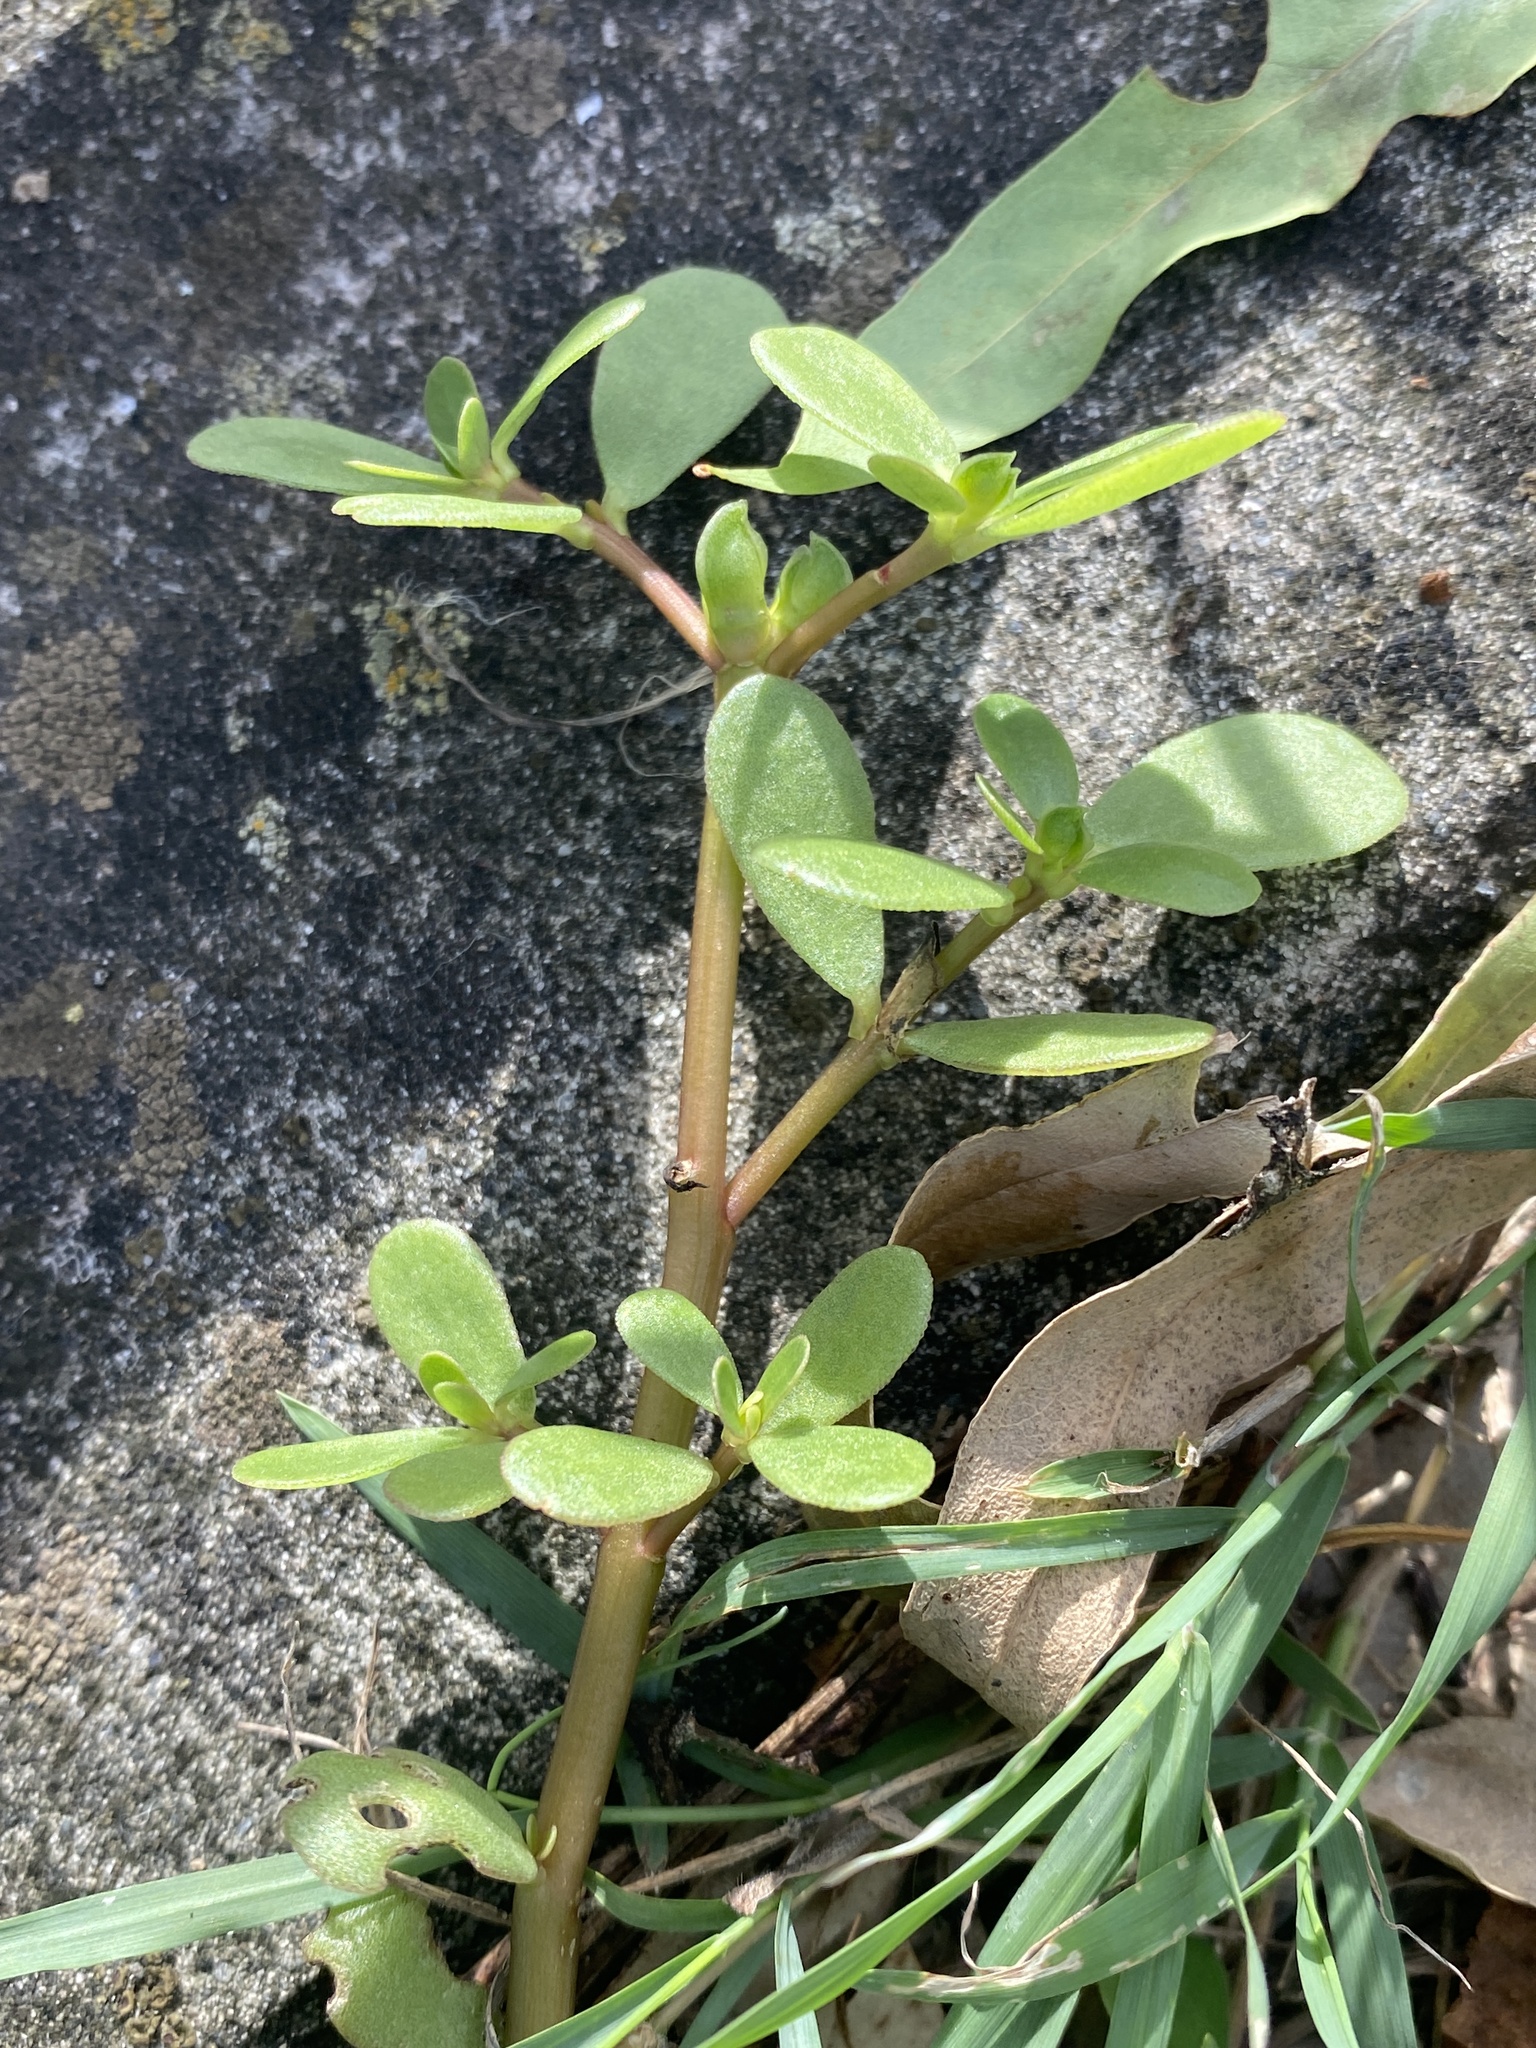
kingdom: Plantae
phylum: Tracheophyta
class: Magnoliopsida
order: Caryophyllales
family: Portulacaceae
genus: Portulaca
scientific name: Portulaca oleracea
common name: Common purslane
